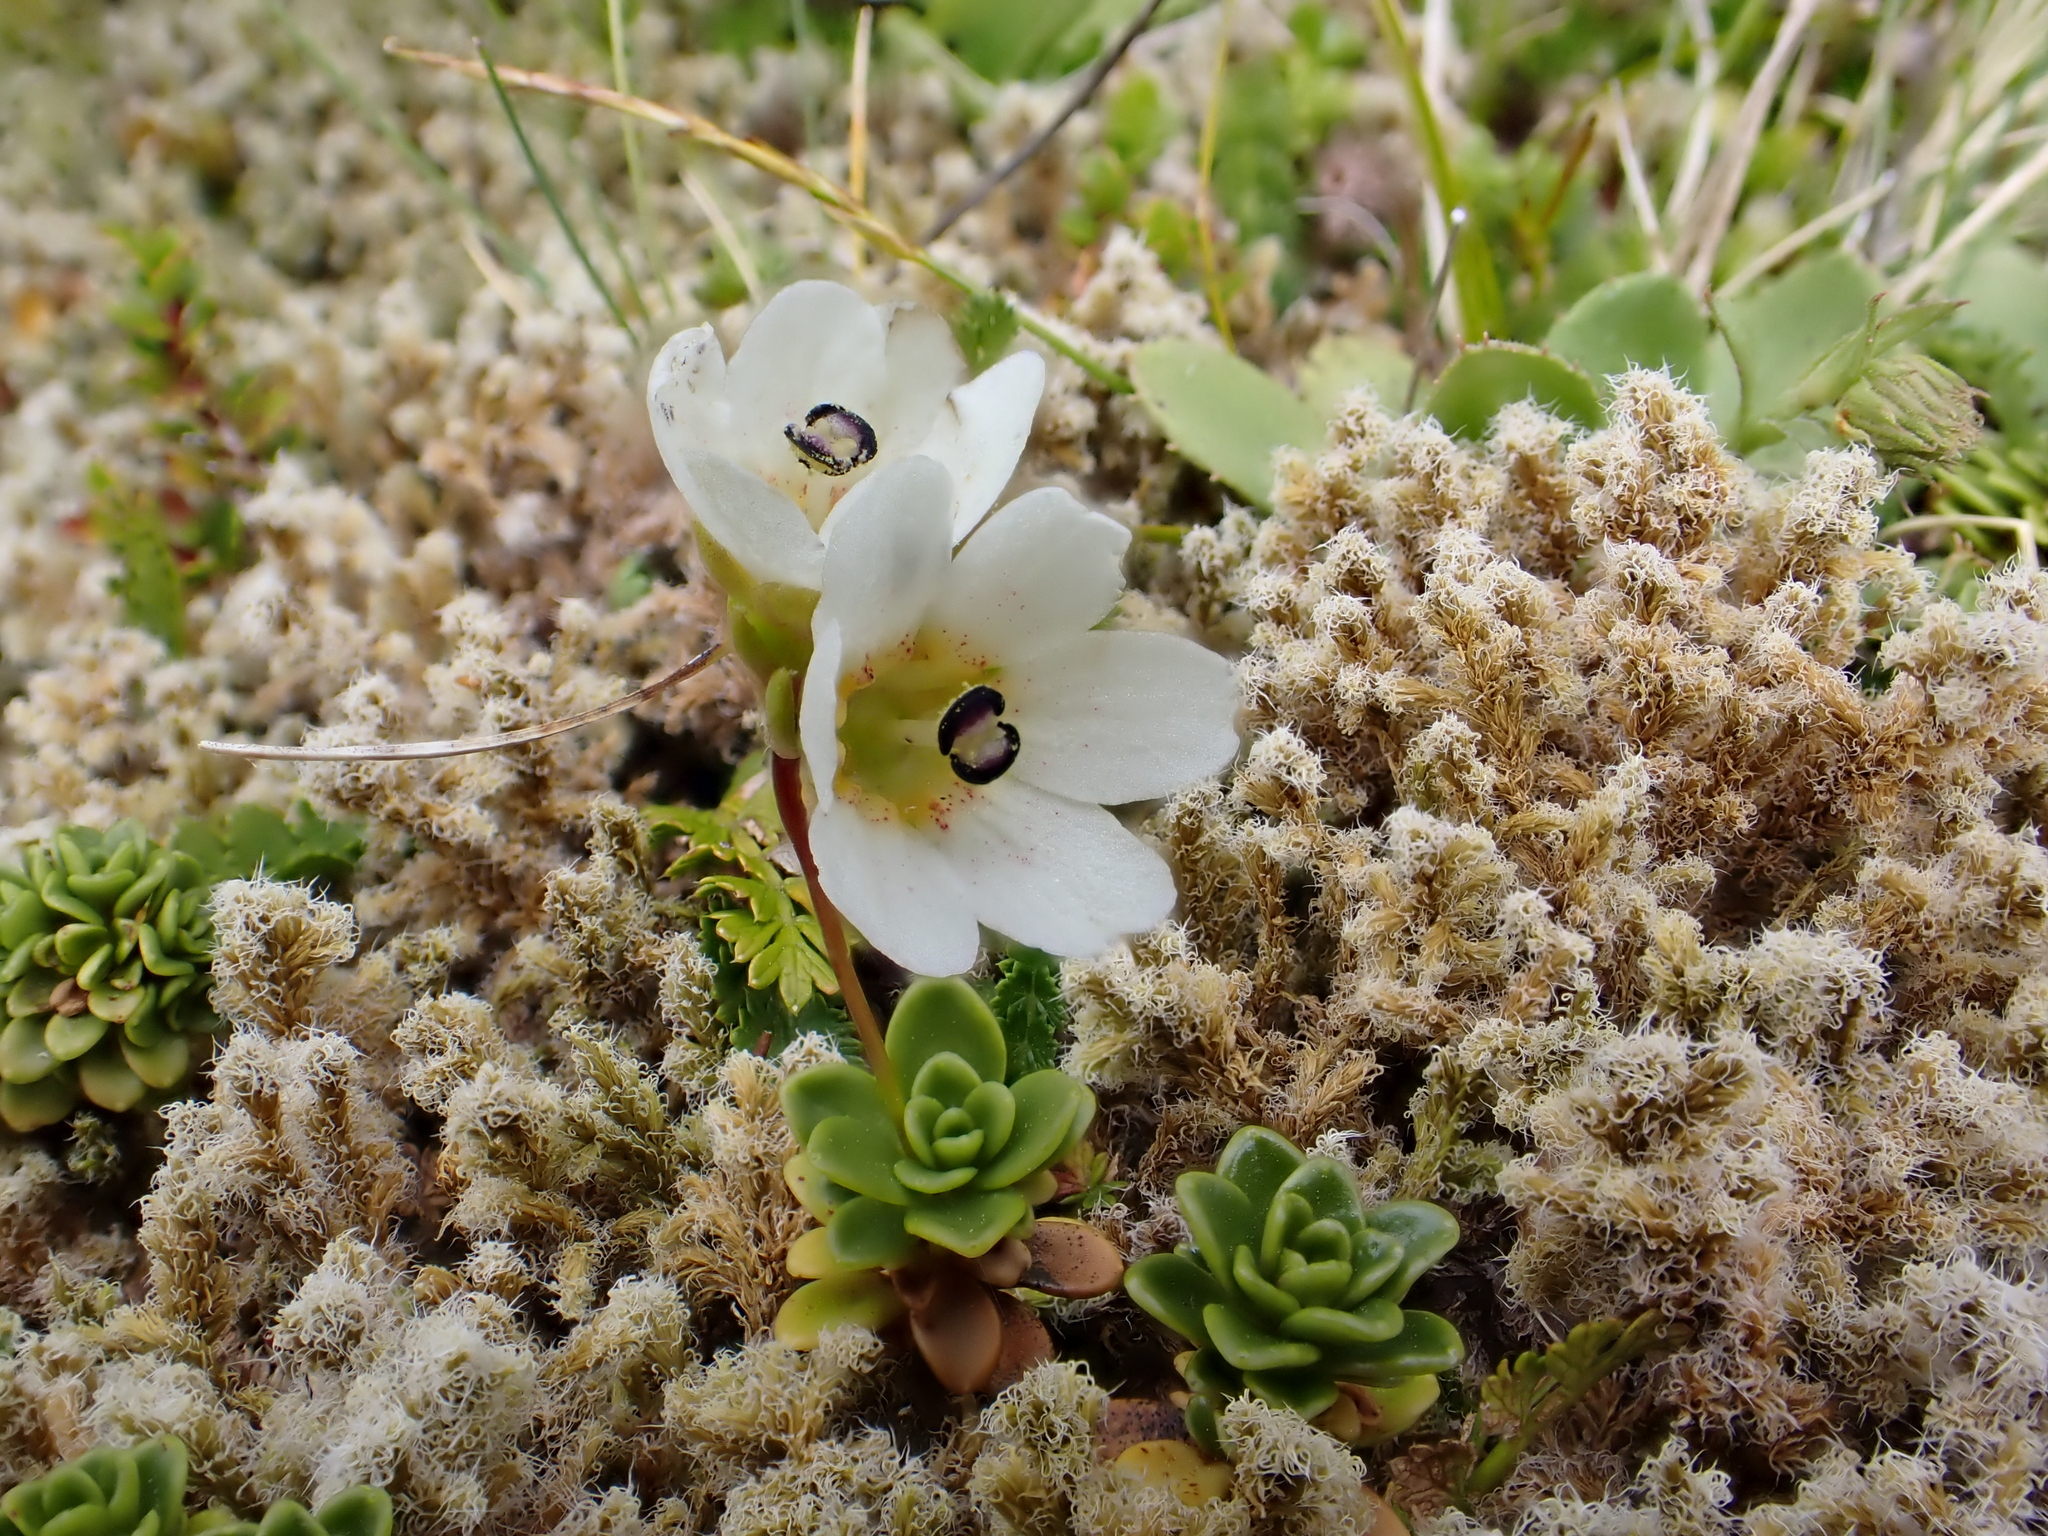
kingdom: Plantae
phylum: Tracheophyta
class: Magnoliopsida
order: Asterales
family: Stylidiaceae
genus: Forstera
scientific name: Forstera tenella
